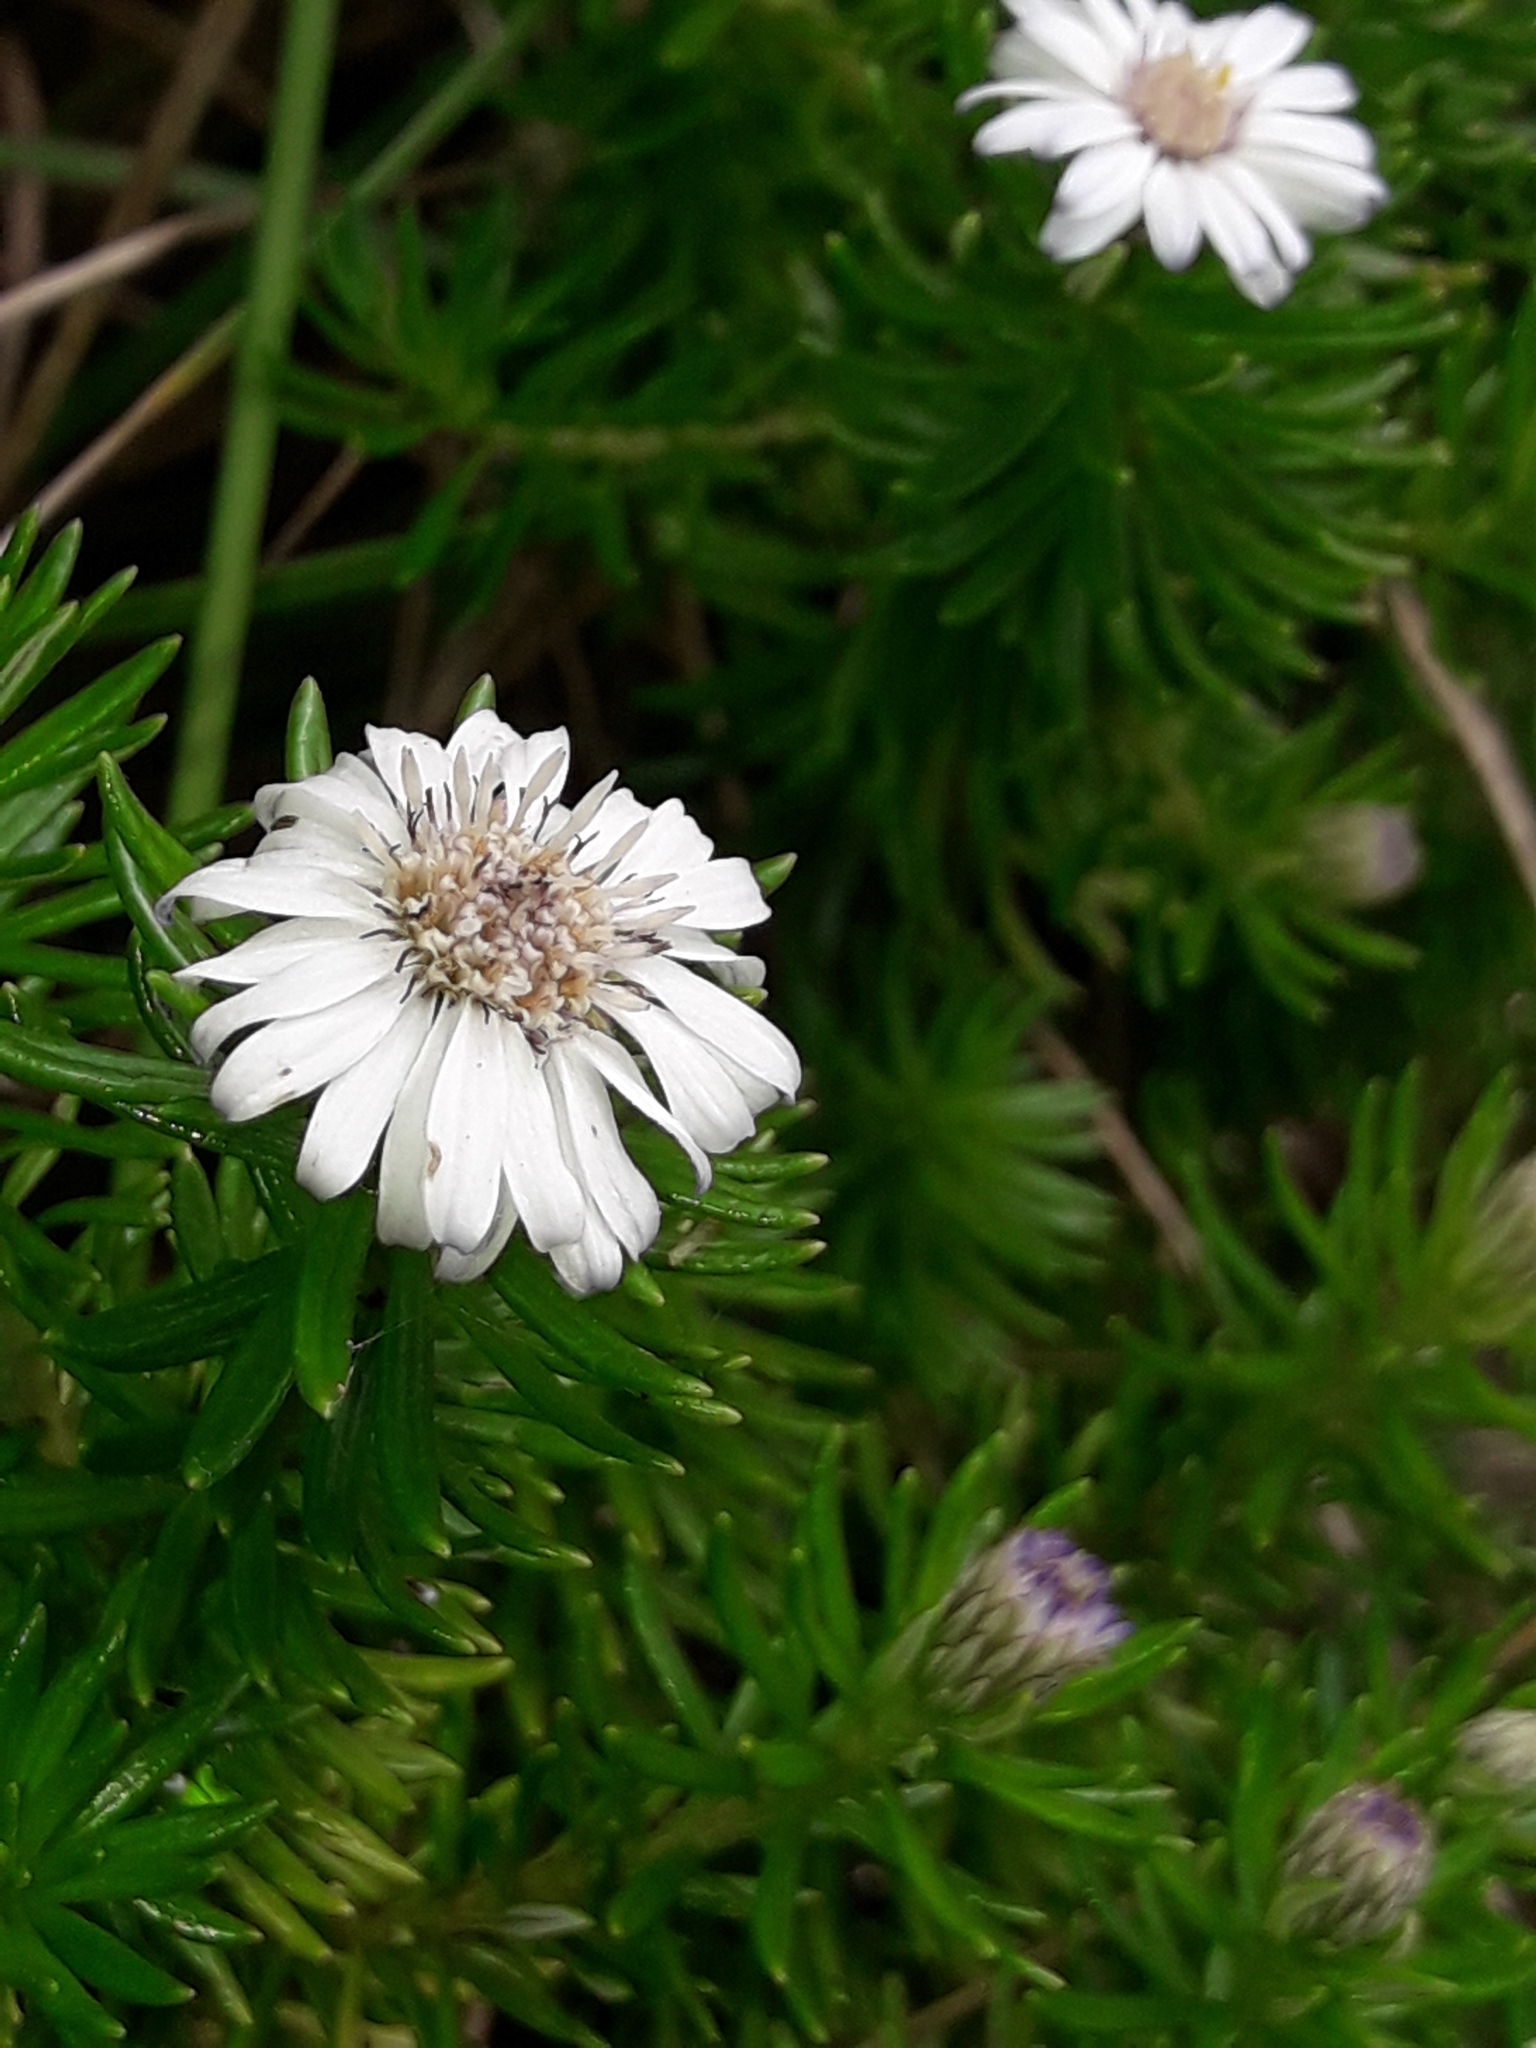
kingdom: Plantae
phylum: Tracheophyta
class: Magnoliopsida
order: Asterales
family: Asteraceae
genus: Olearia
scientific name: Olearia ballii
